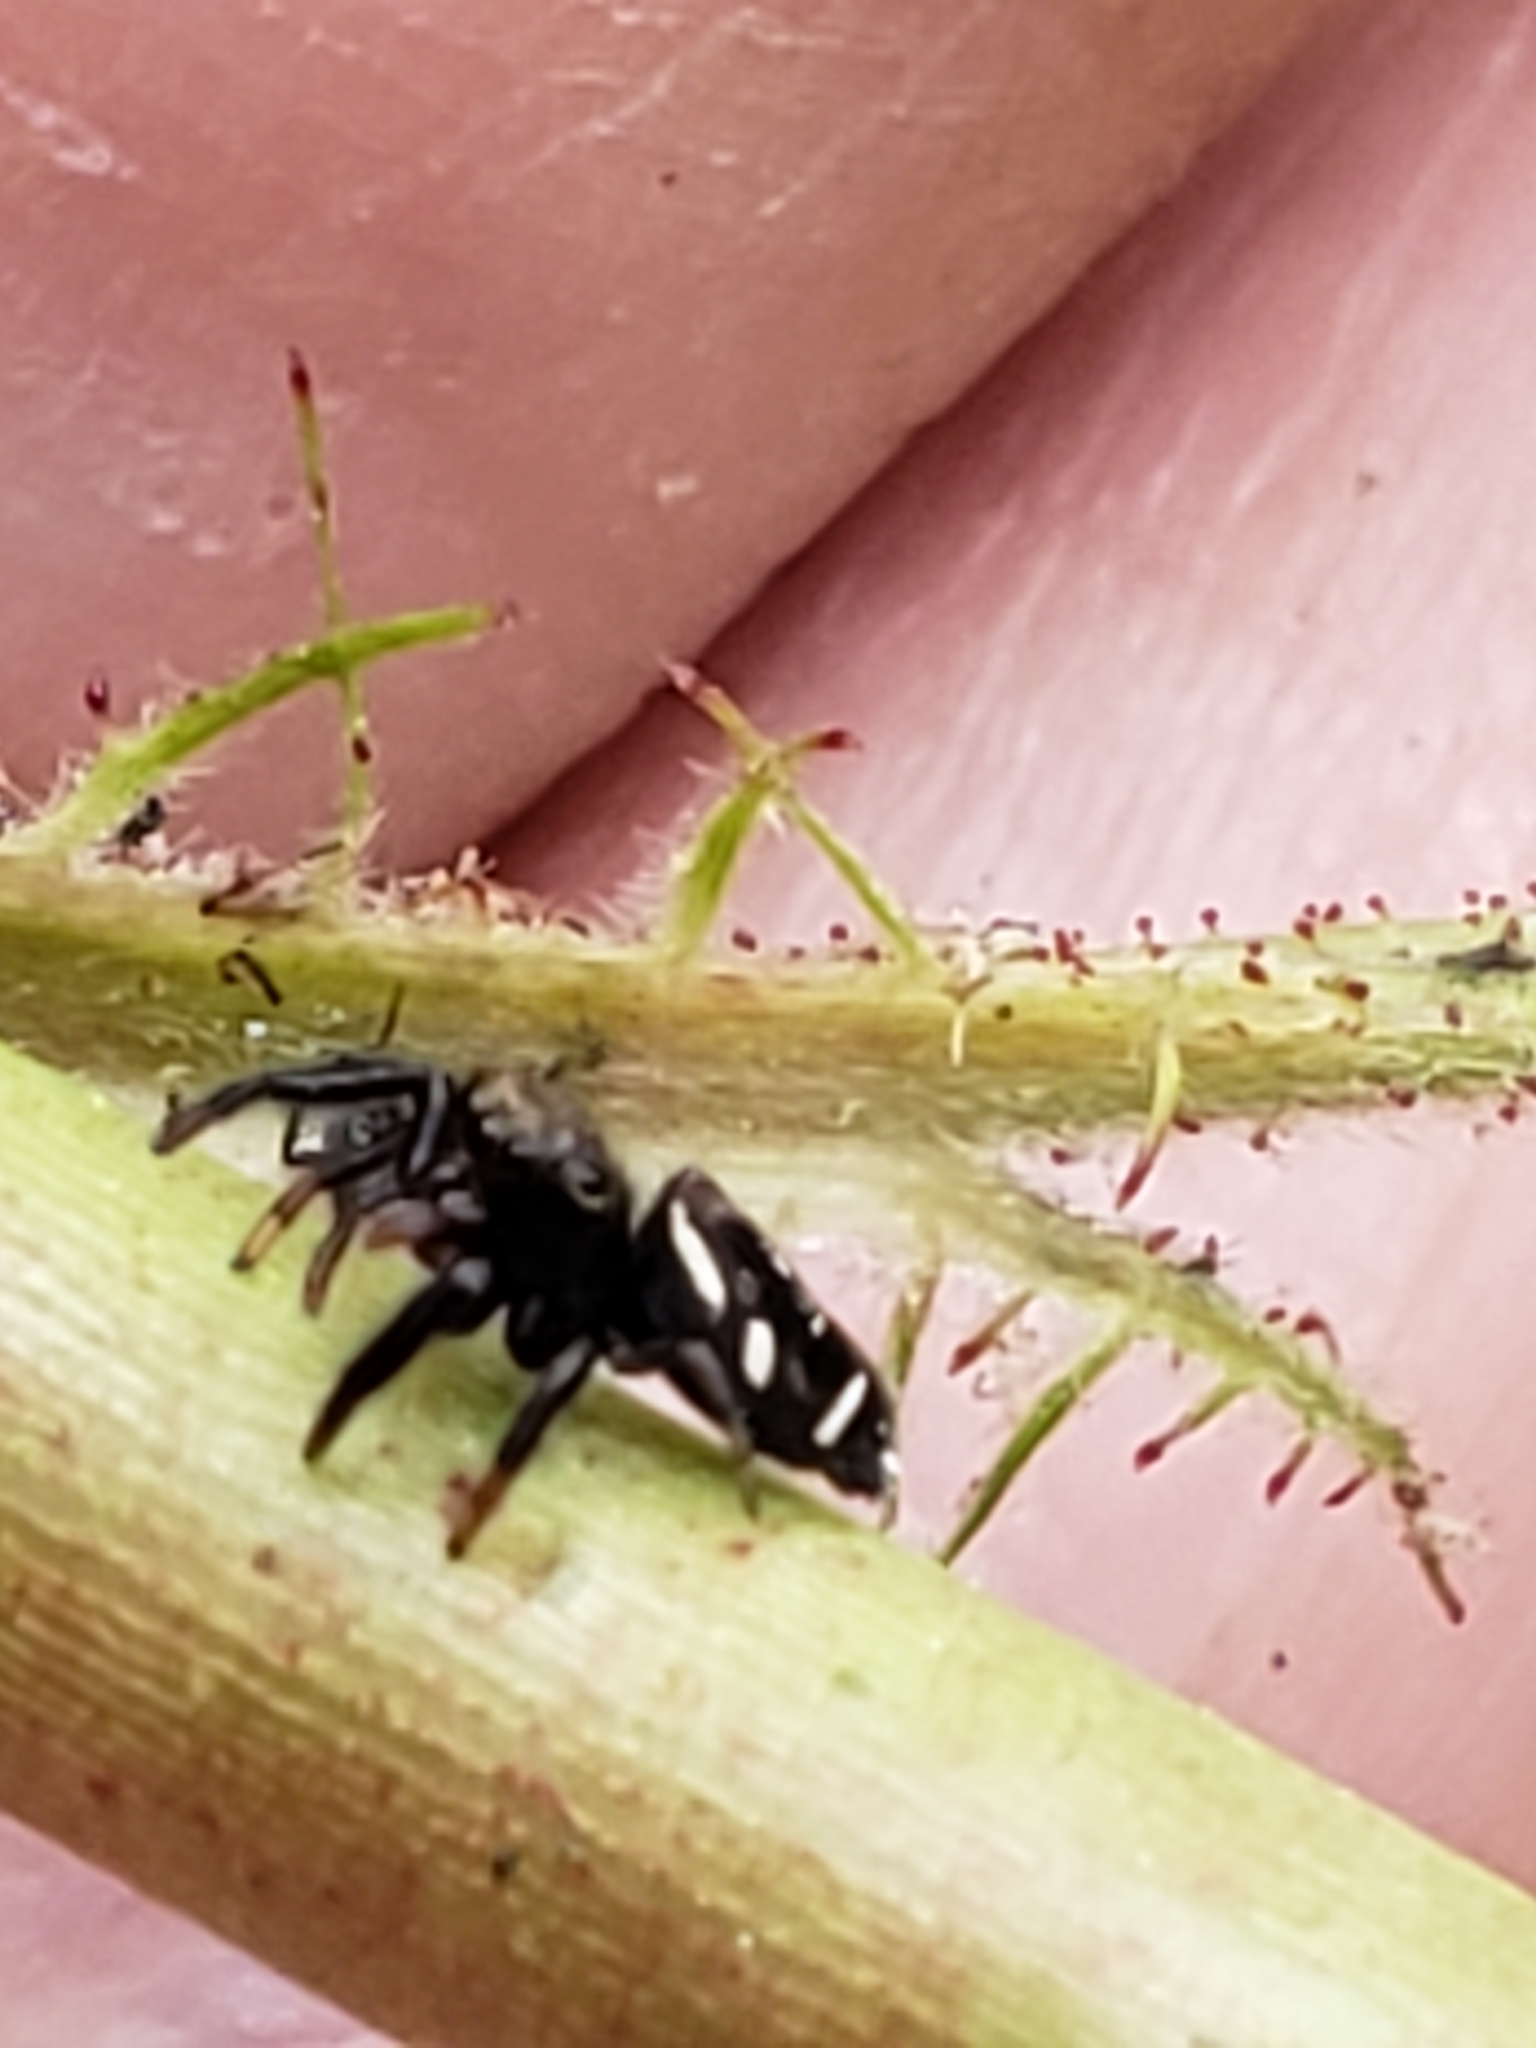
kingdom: Animalia
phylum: Arthropoda
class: Arachnida
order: Araneae
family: Salticidae
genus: Paraphidippus
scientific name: Paraphidippus aurantius
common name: Jumping spiders
